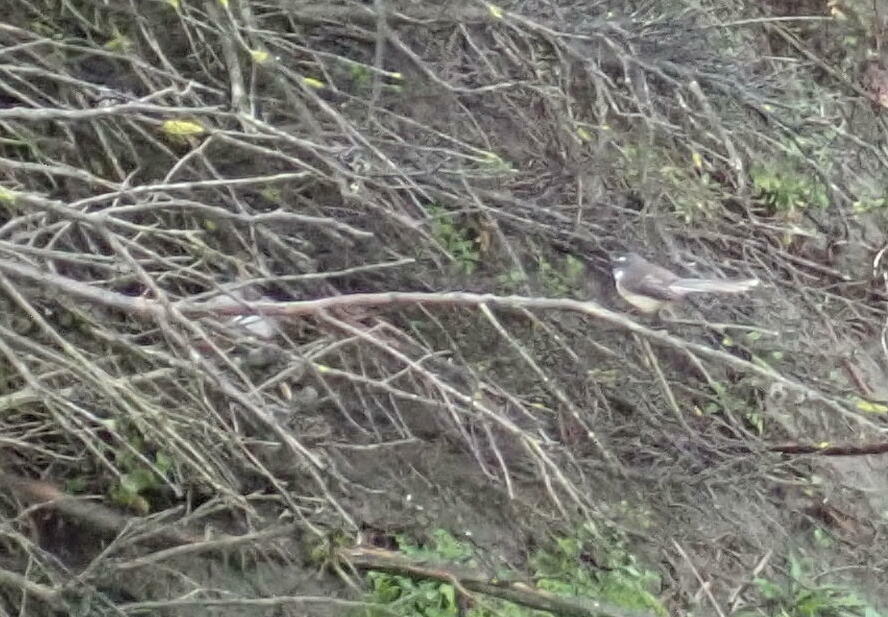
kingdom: Animalia
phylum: Chordata
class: Aves
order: Passeriformes
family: Rhipiduridae
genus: Rhipidura
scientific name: Rhipidura fuliginosa
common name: New zealand fantail
